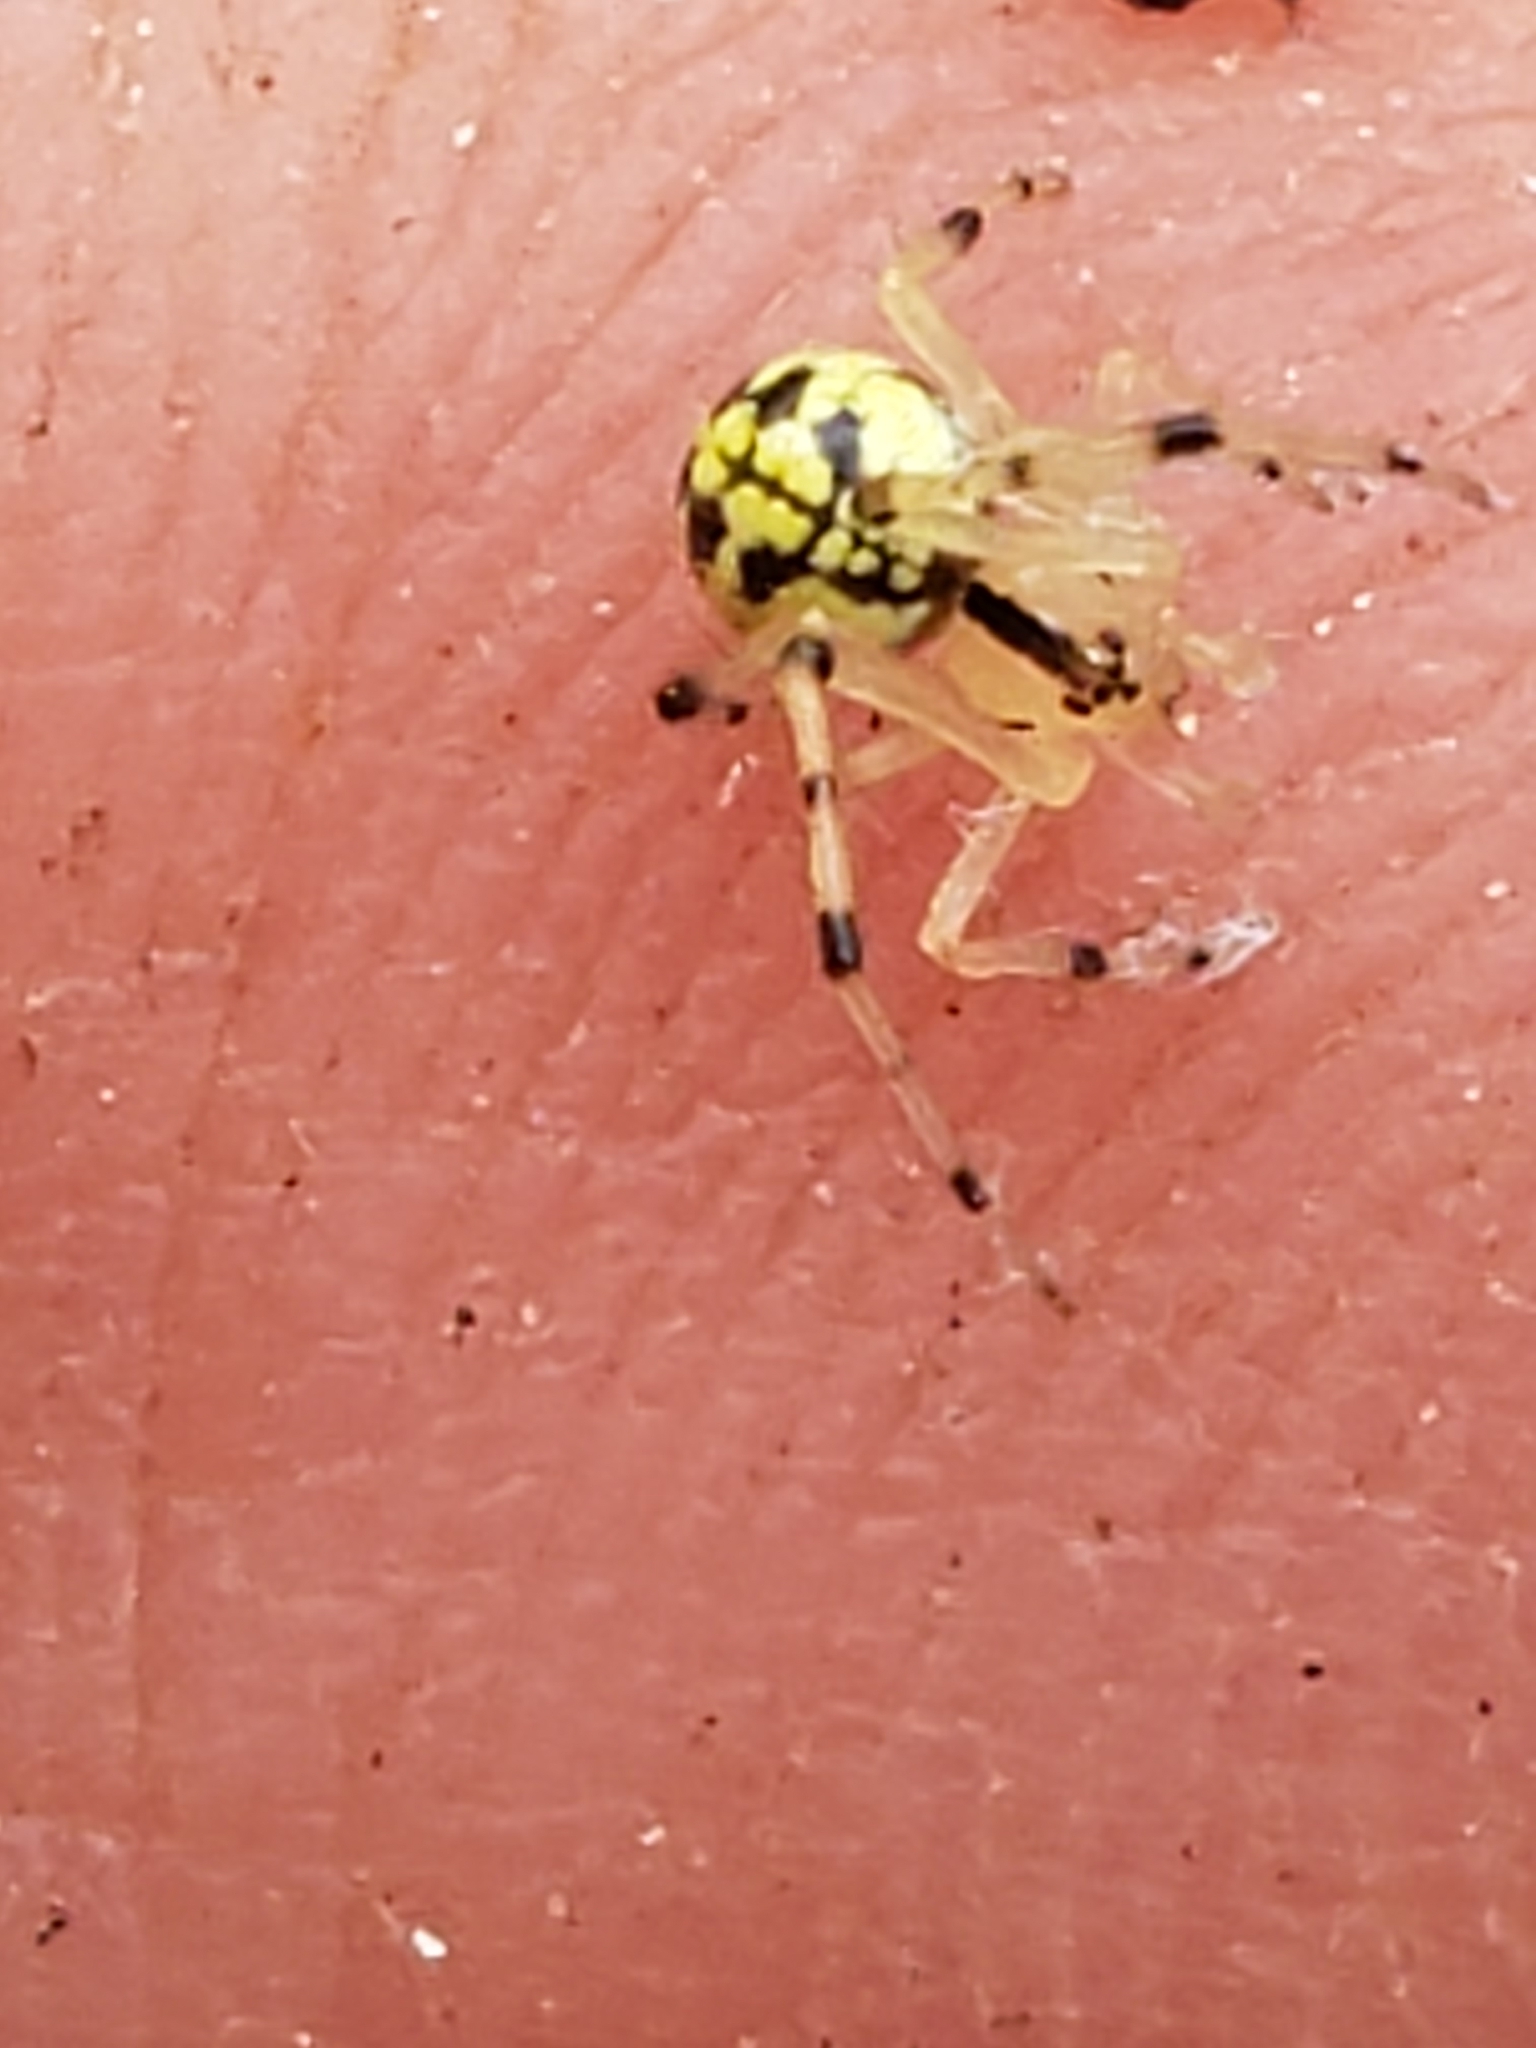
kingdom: Animalia
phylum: Arthropoda
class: Arachnida
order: Araneae
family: Theridiidae
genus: Phylloneta
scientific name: Phylloneta pictipes
